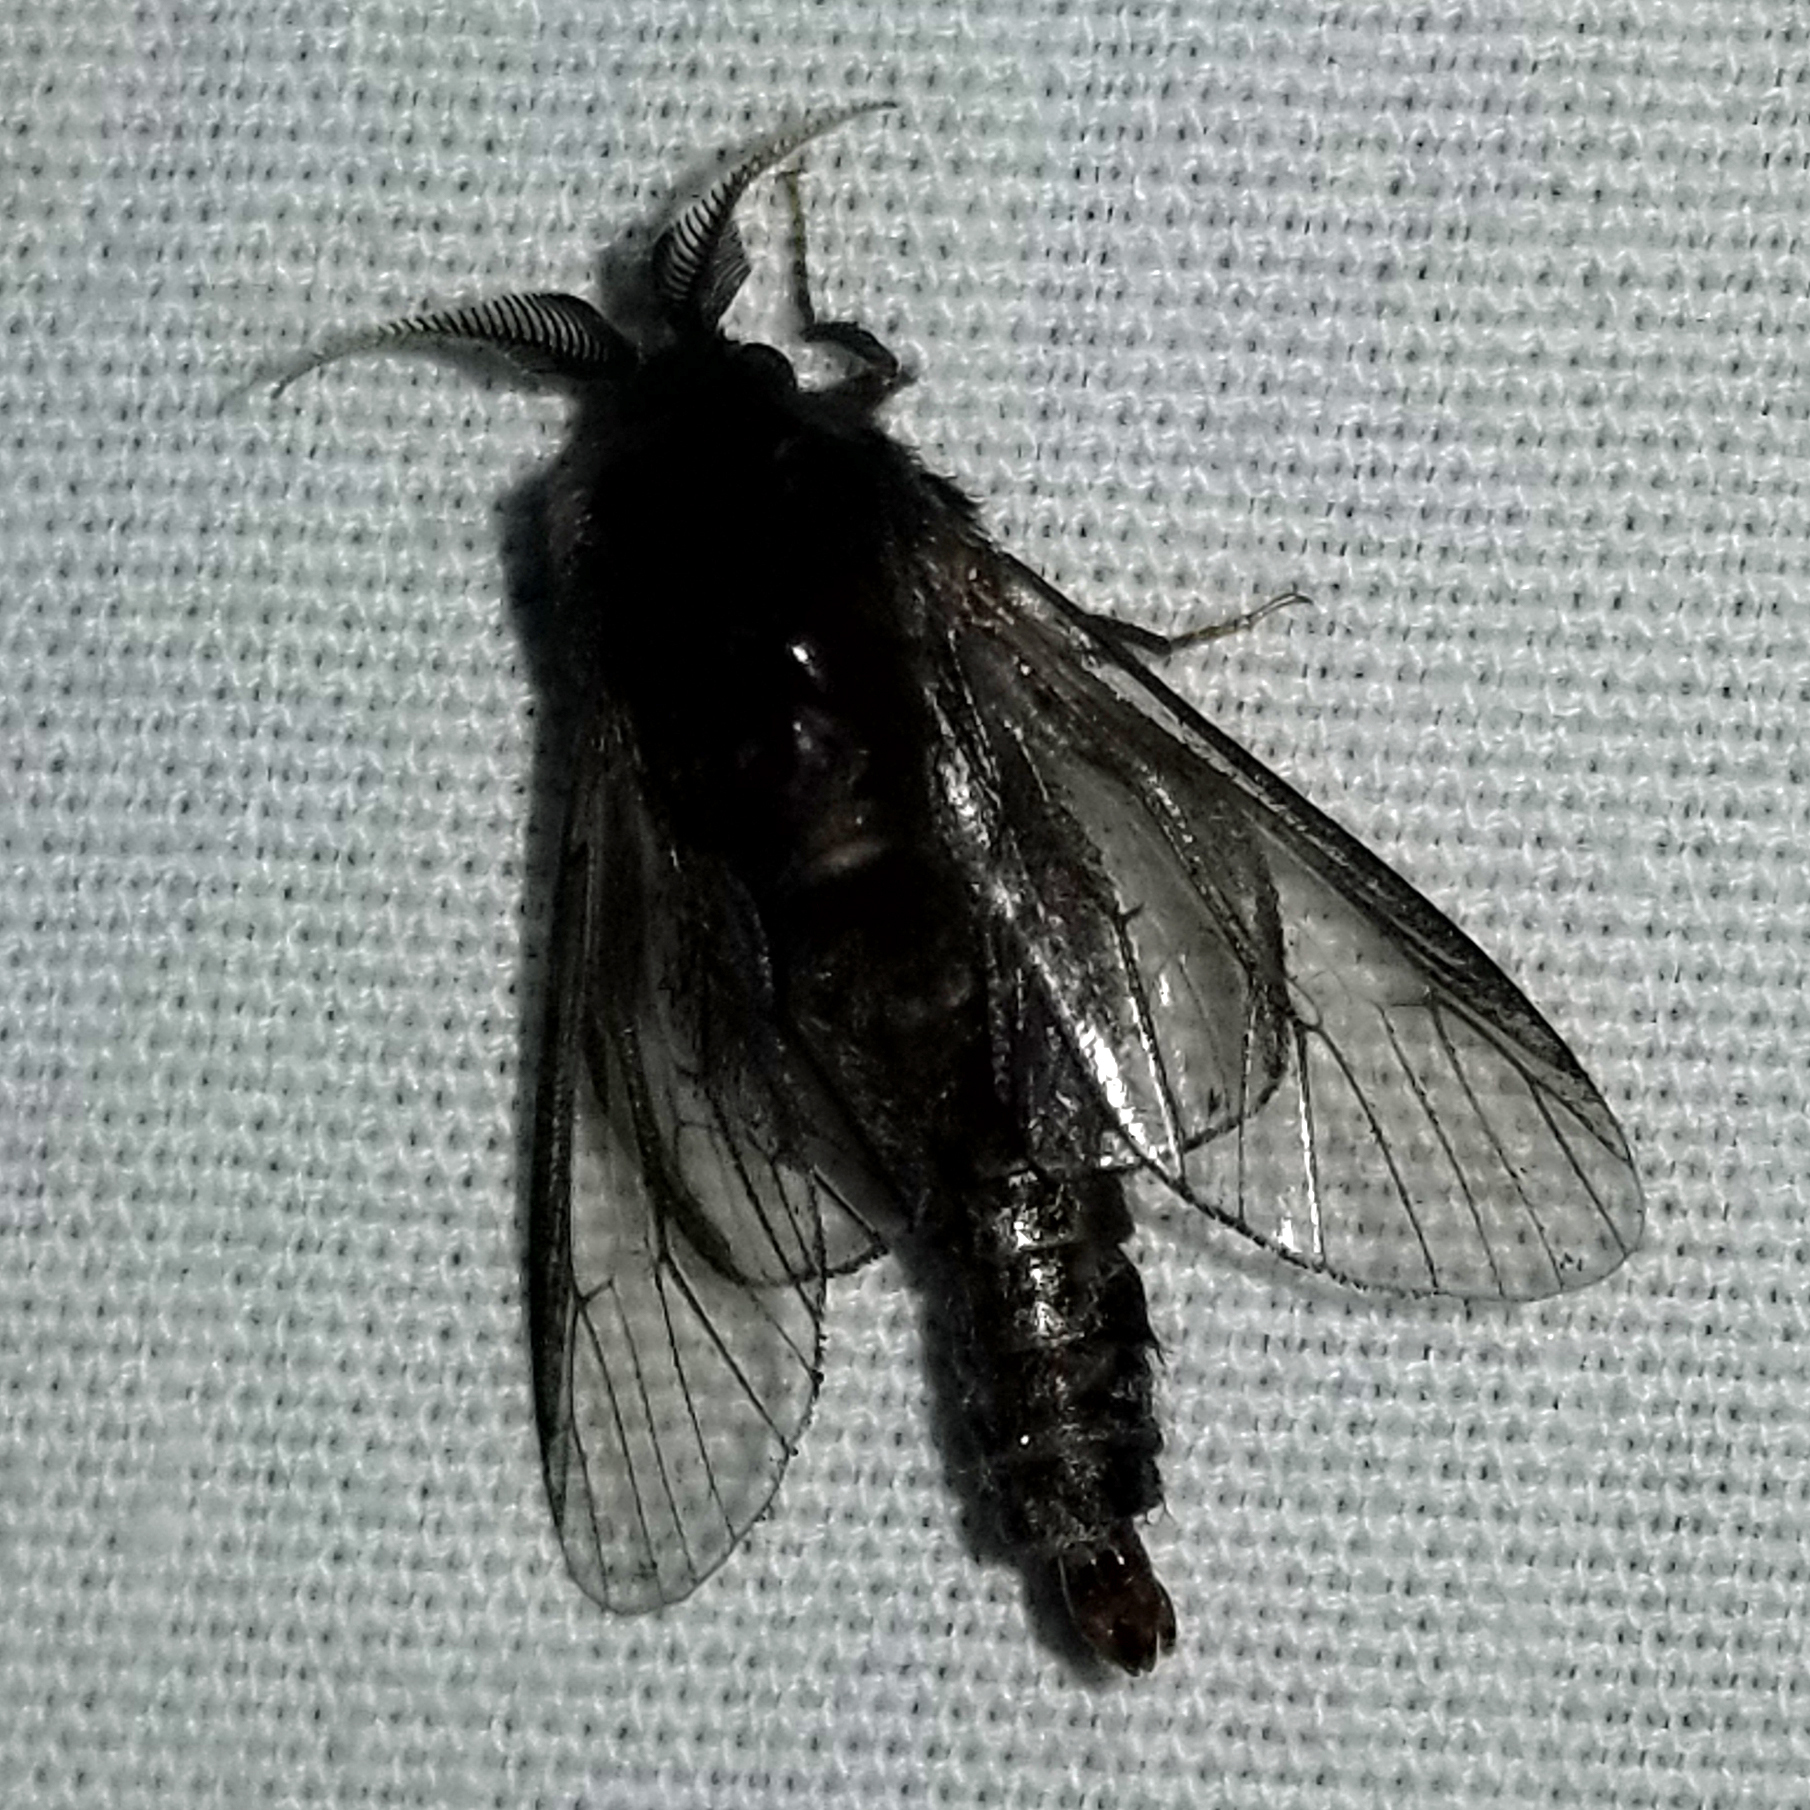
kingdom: Animalia
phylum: Arthropoda
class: Insecta
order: Lepidoptera
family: Psychidae
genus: Thyridopteryx
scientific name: Thyridopteryx ephemeraeformis
